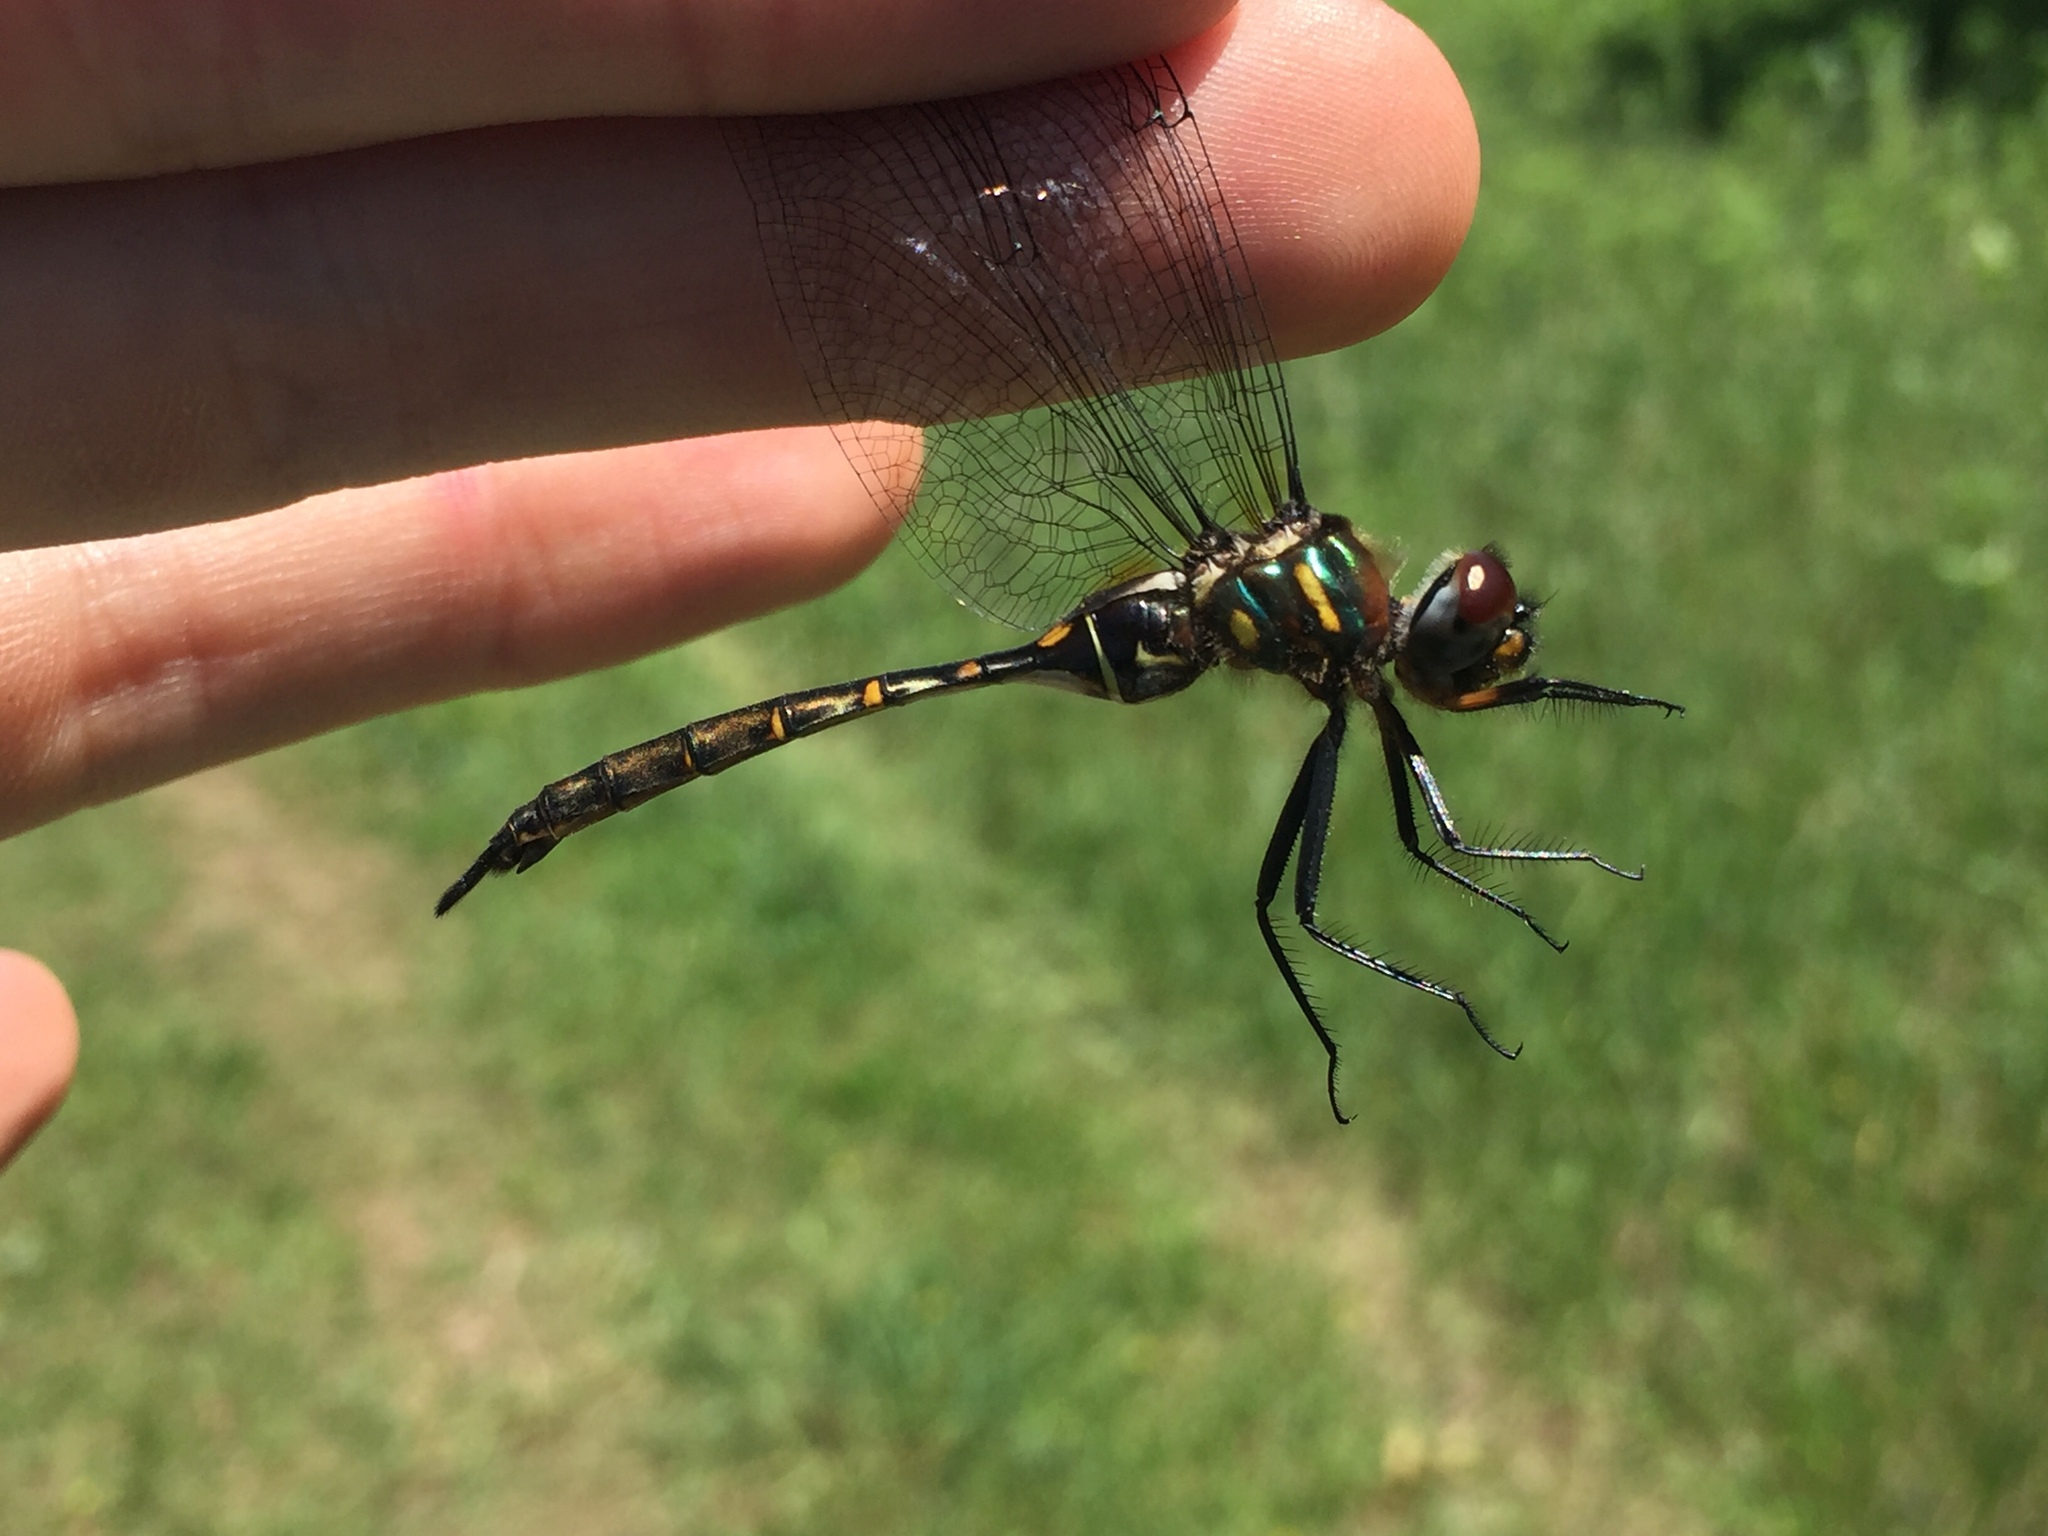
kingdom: Animalia
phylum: Arthropoda
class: Insecta
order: Odonata
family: Corduliidae
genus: Somatochlora
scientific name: Somatochlora walshii
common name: Brush-tipped emerald
